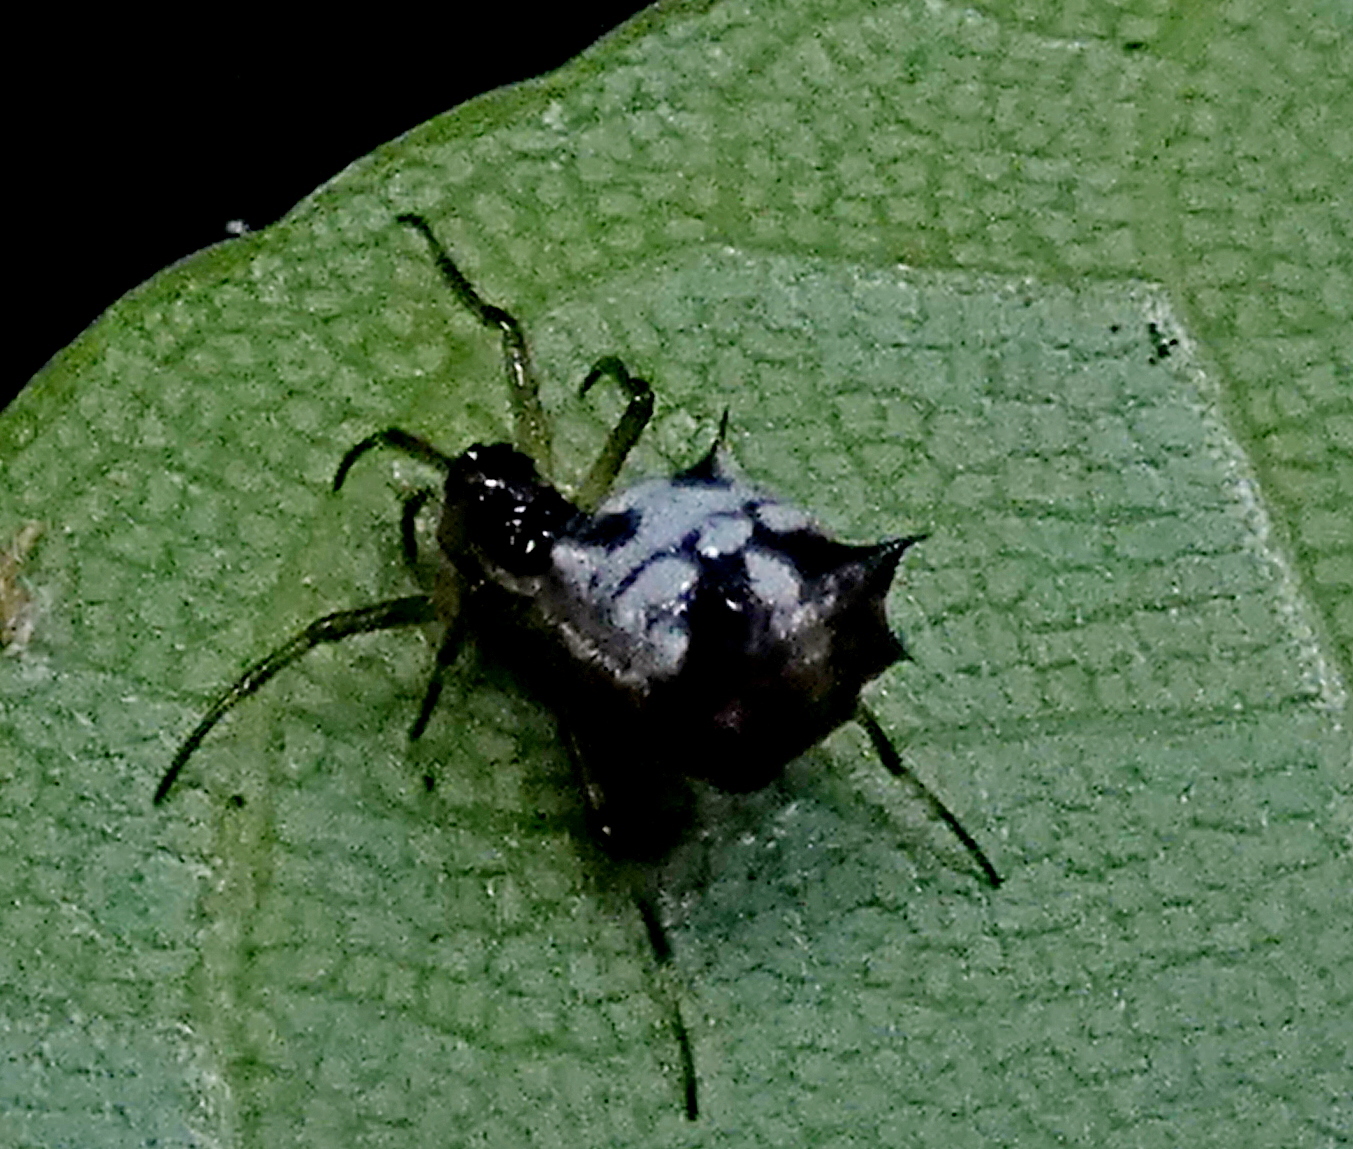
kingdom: Animalia
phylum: Arthropoda
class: Arachnida
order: Araneae
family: Araneidae
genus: Micrathena
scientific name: Micrathena picta
